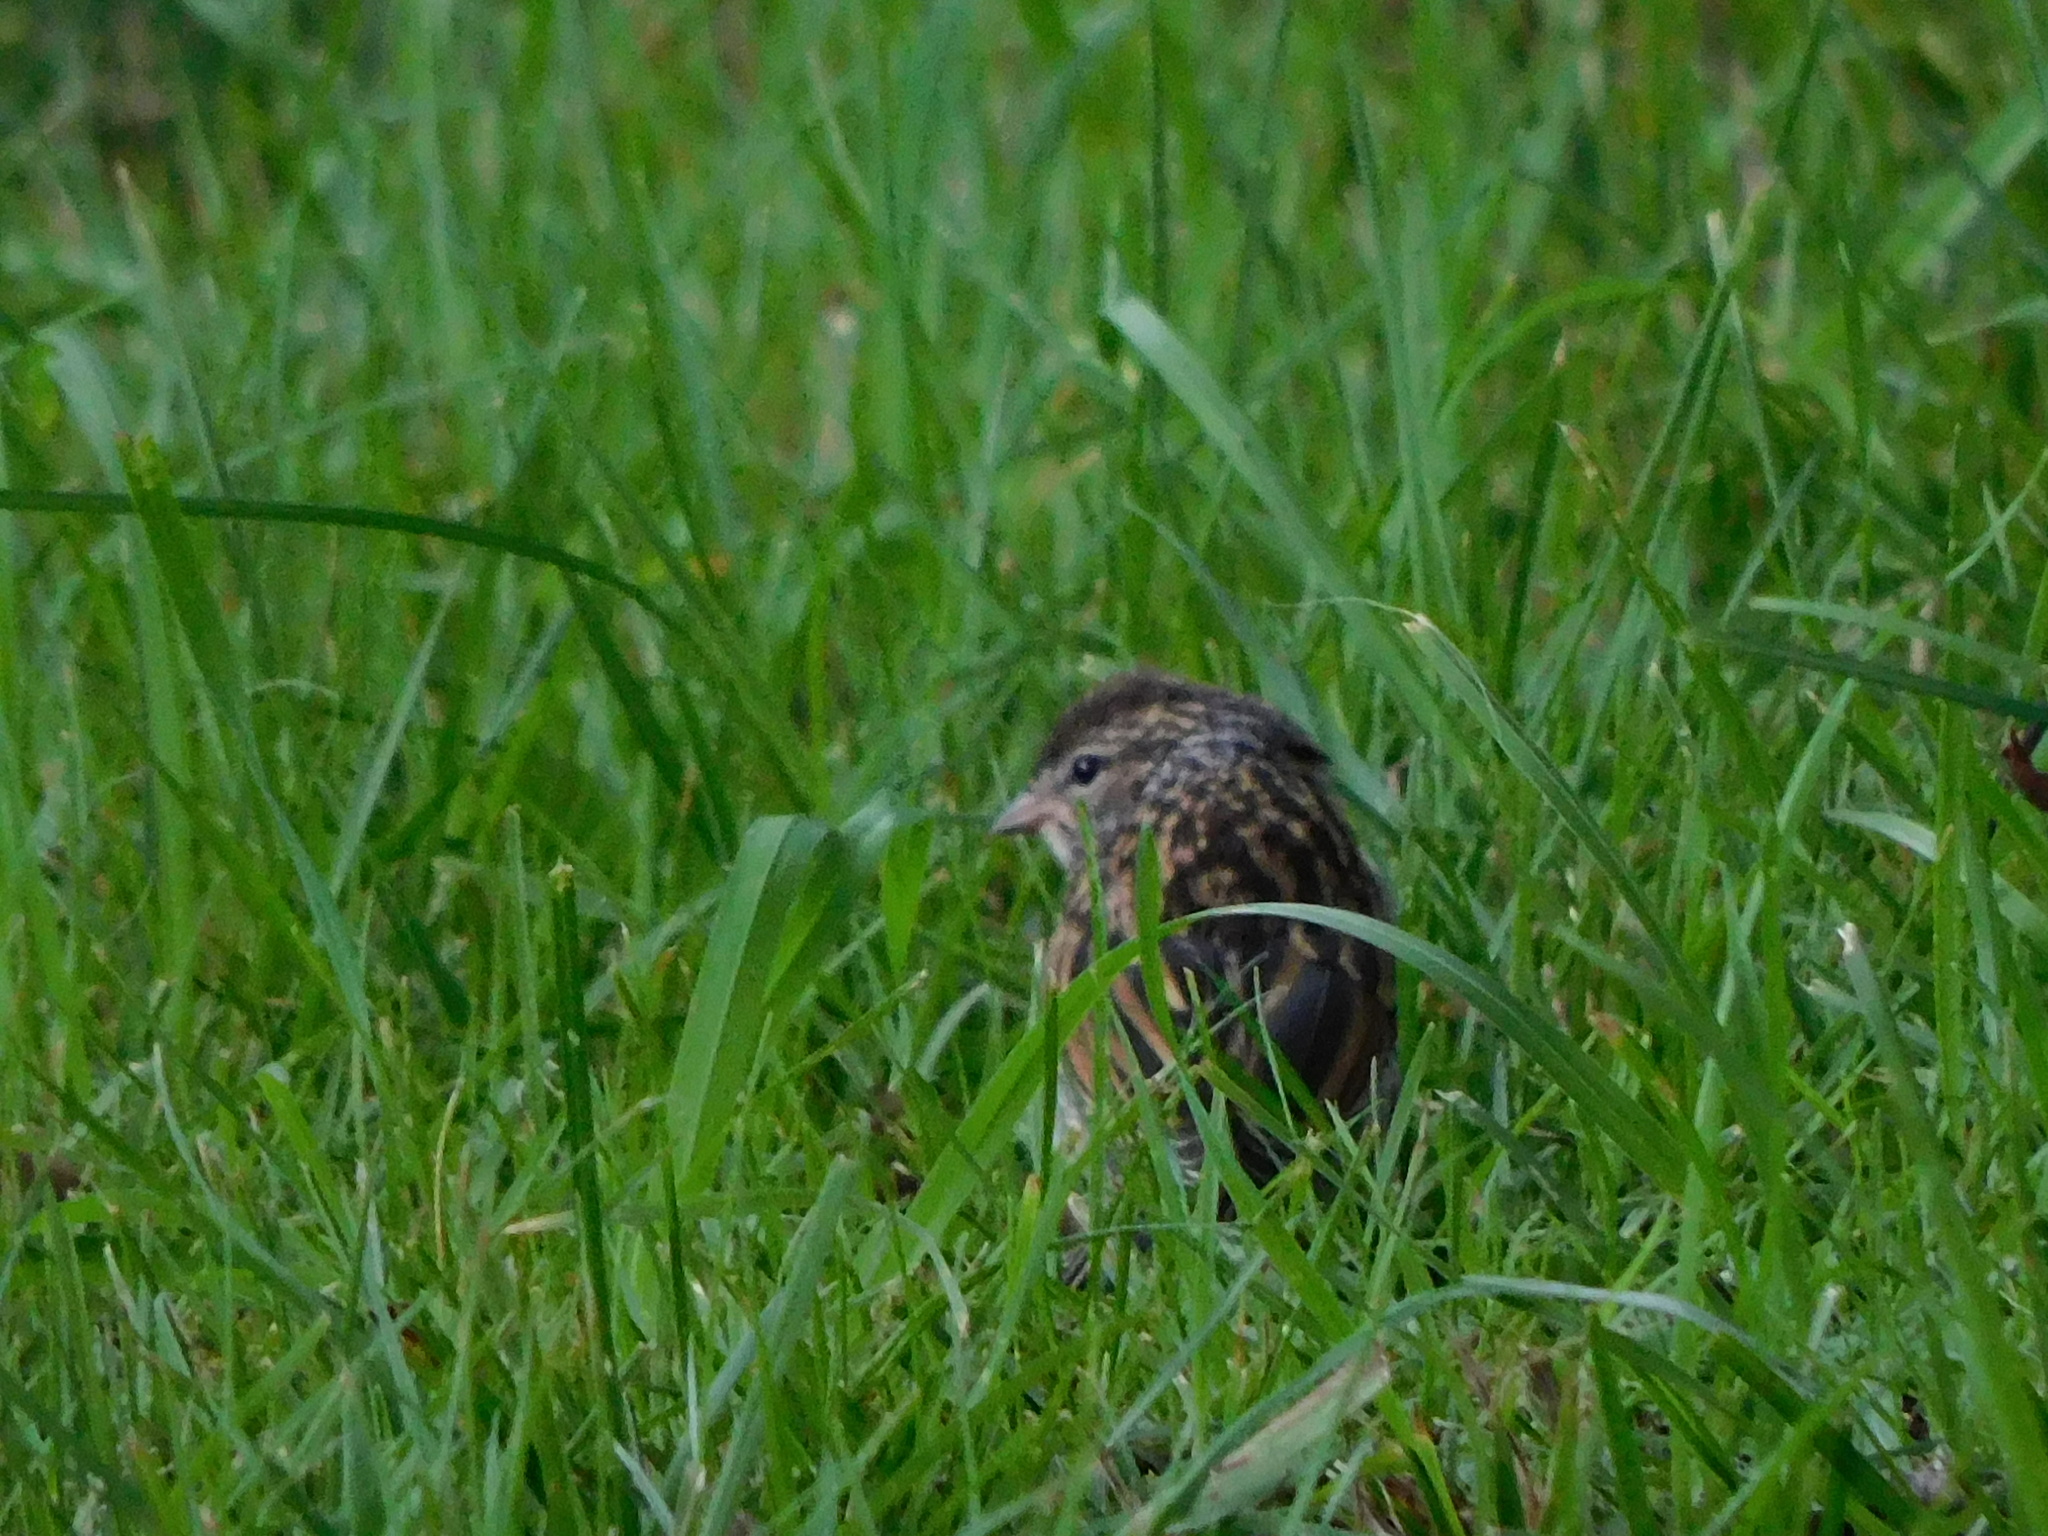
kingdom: Animalia
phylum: Chordata
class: Aves
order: Passeriformes
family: Passerellidae
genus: Spizella
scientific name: Spizella passerina
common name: Chipping sparrow
